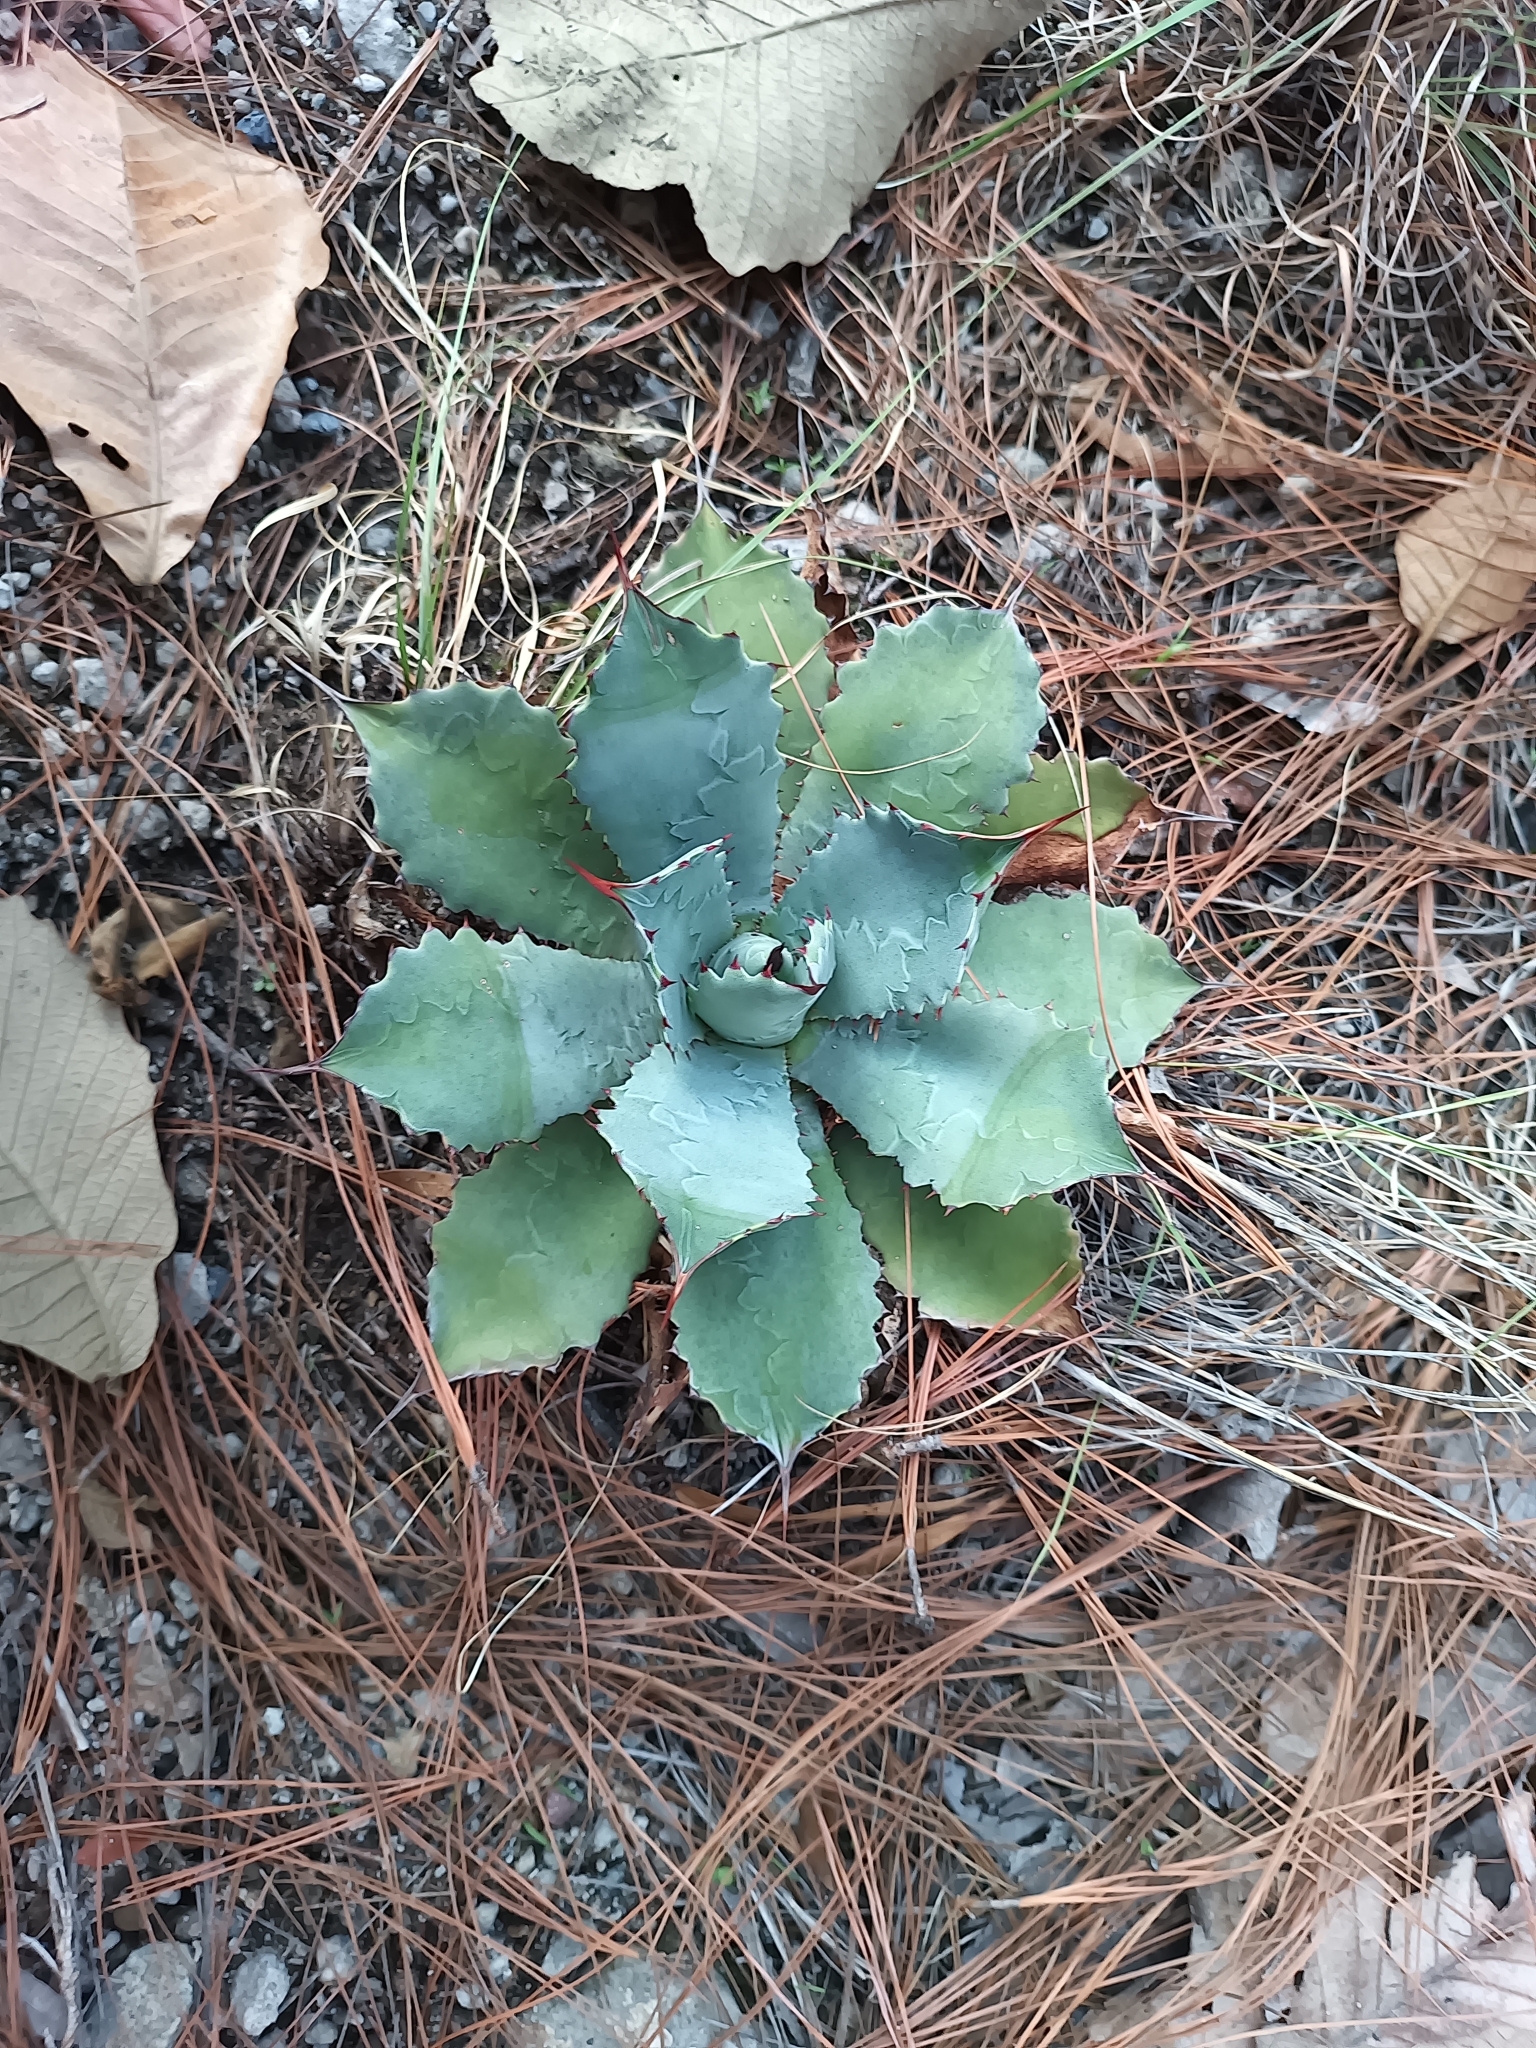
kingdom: Plantae
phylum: Tracheophyta
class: Liliopsida
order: Asparagales
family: Asparagaceae
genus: Agave
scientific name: Agave guadalajarana
